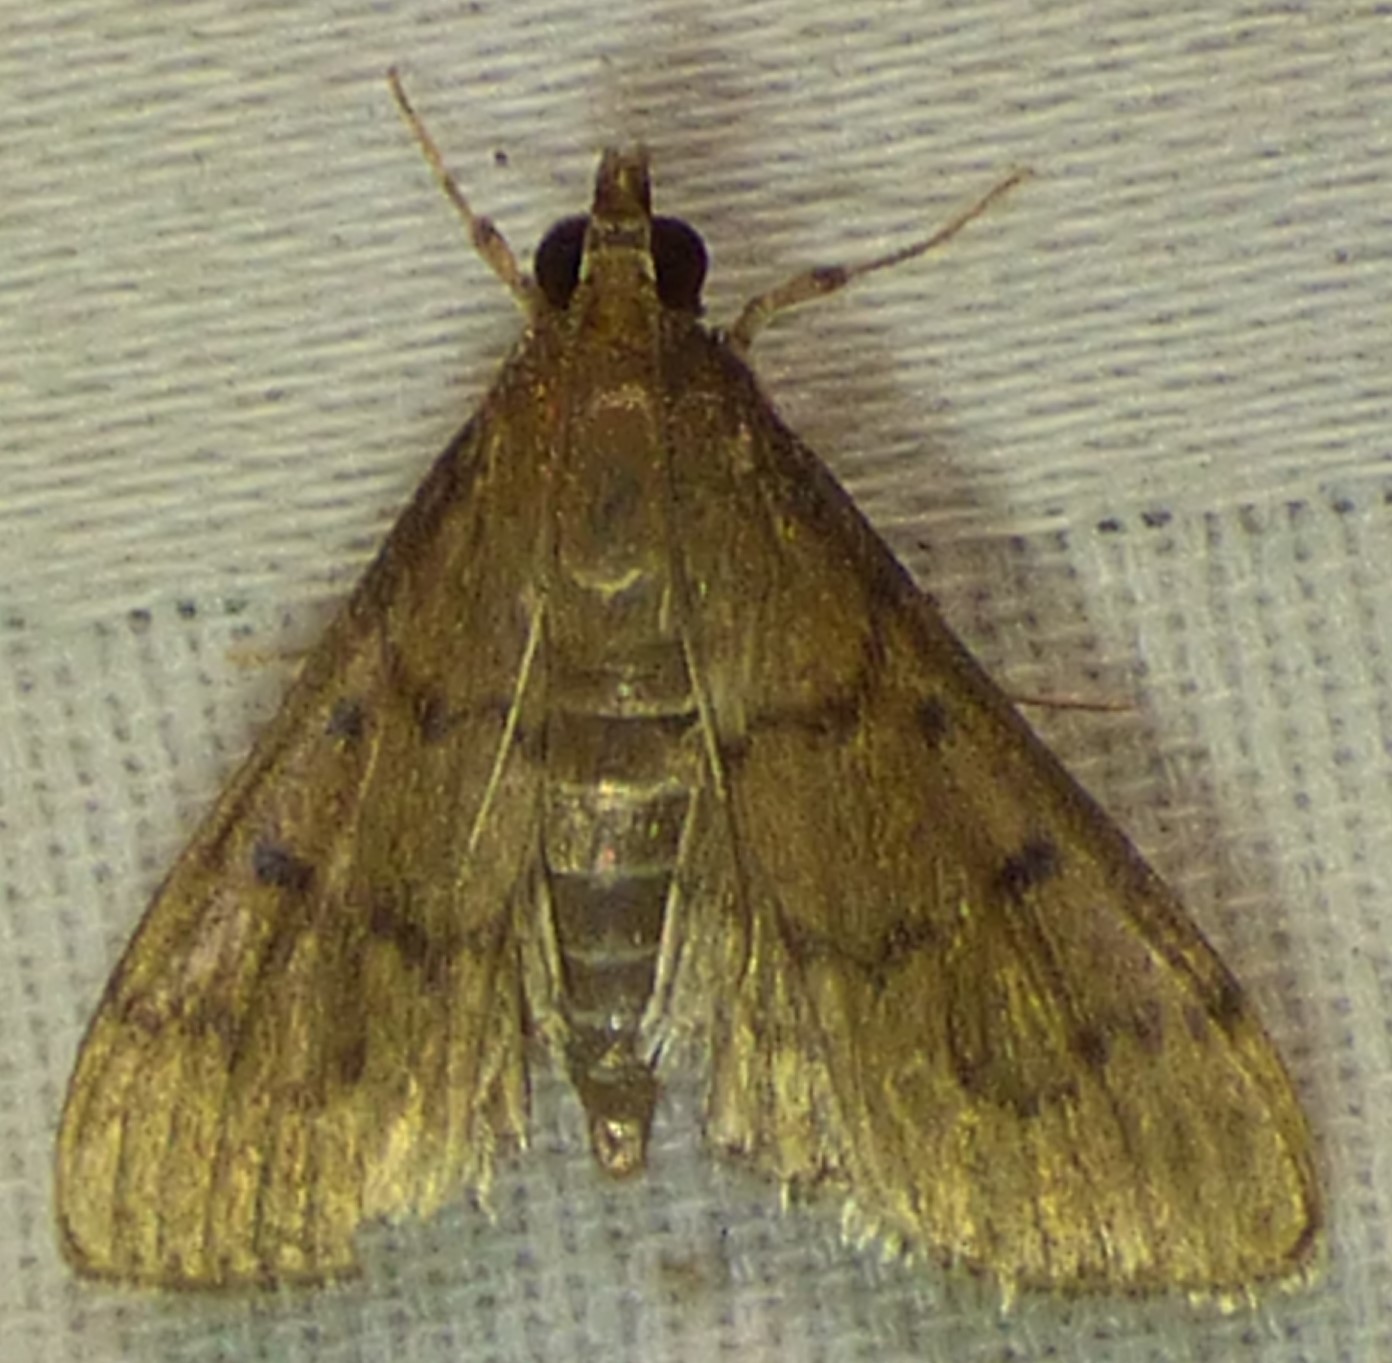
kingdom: Animalia
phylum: Arthropoda
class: Insecta
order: Lepidoptera
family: Crambidae
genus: Herpetogramma
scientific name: Herpetogramma phaeopteralis
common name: Dusky herpetogramma moth
